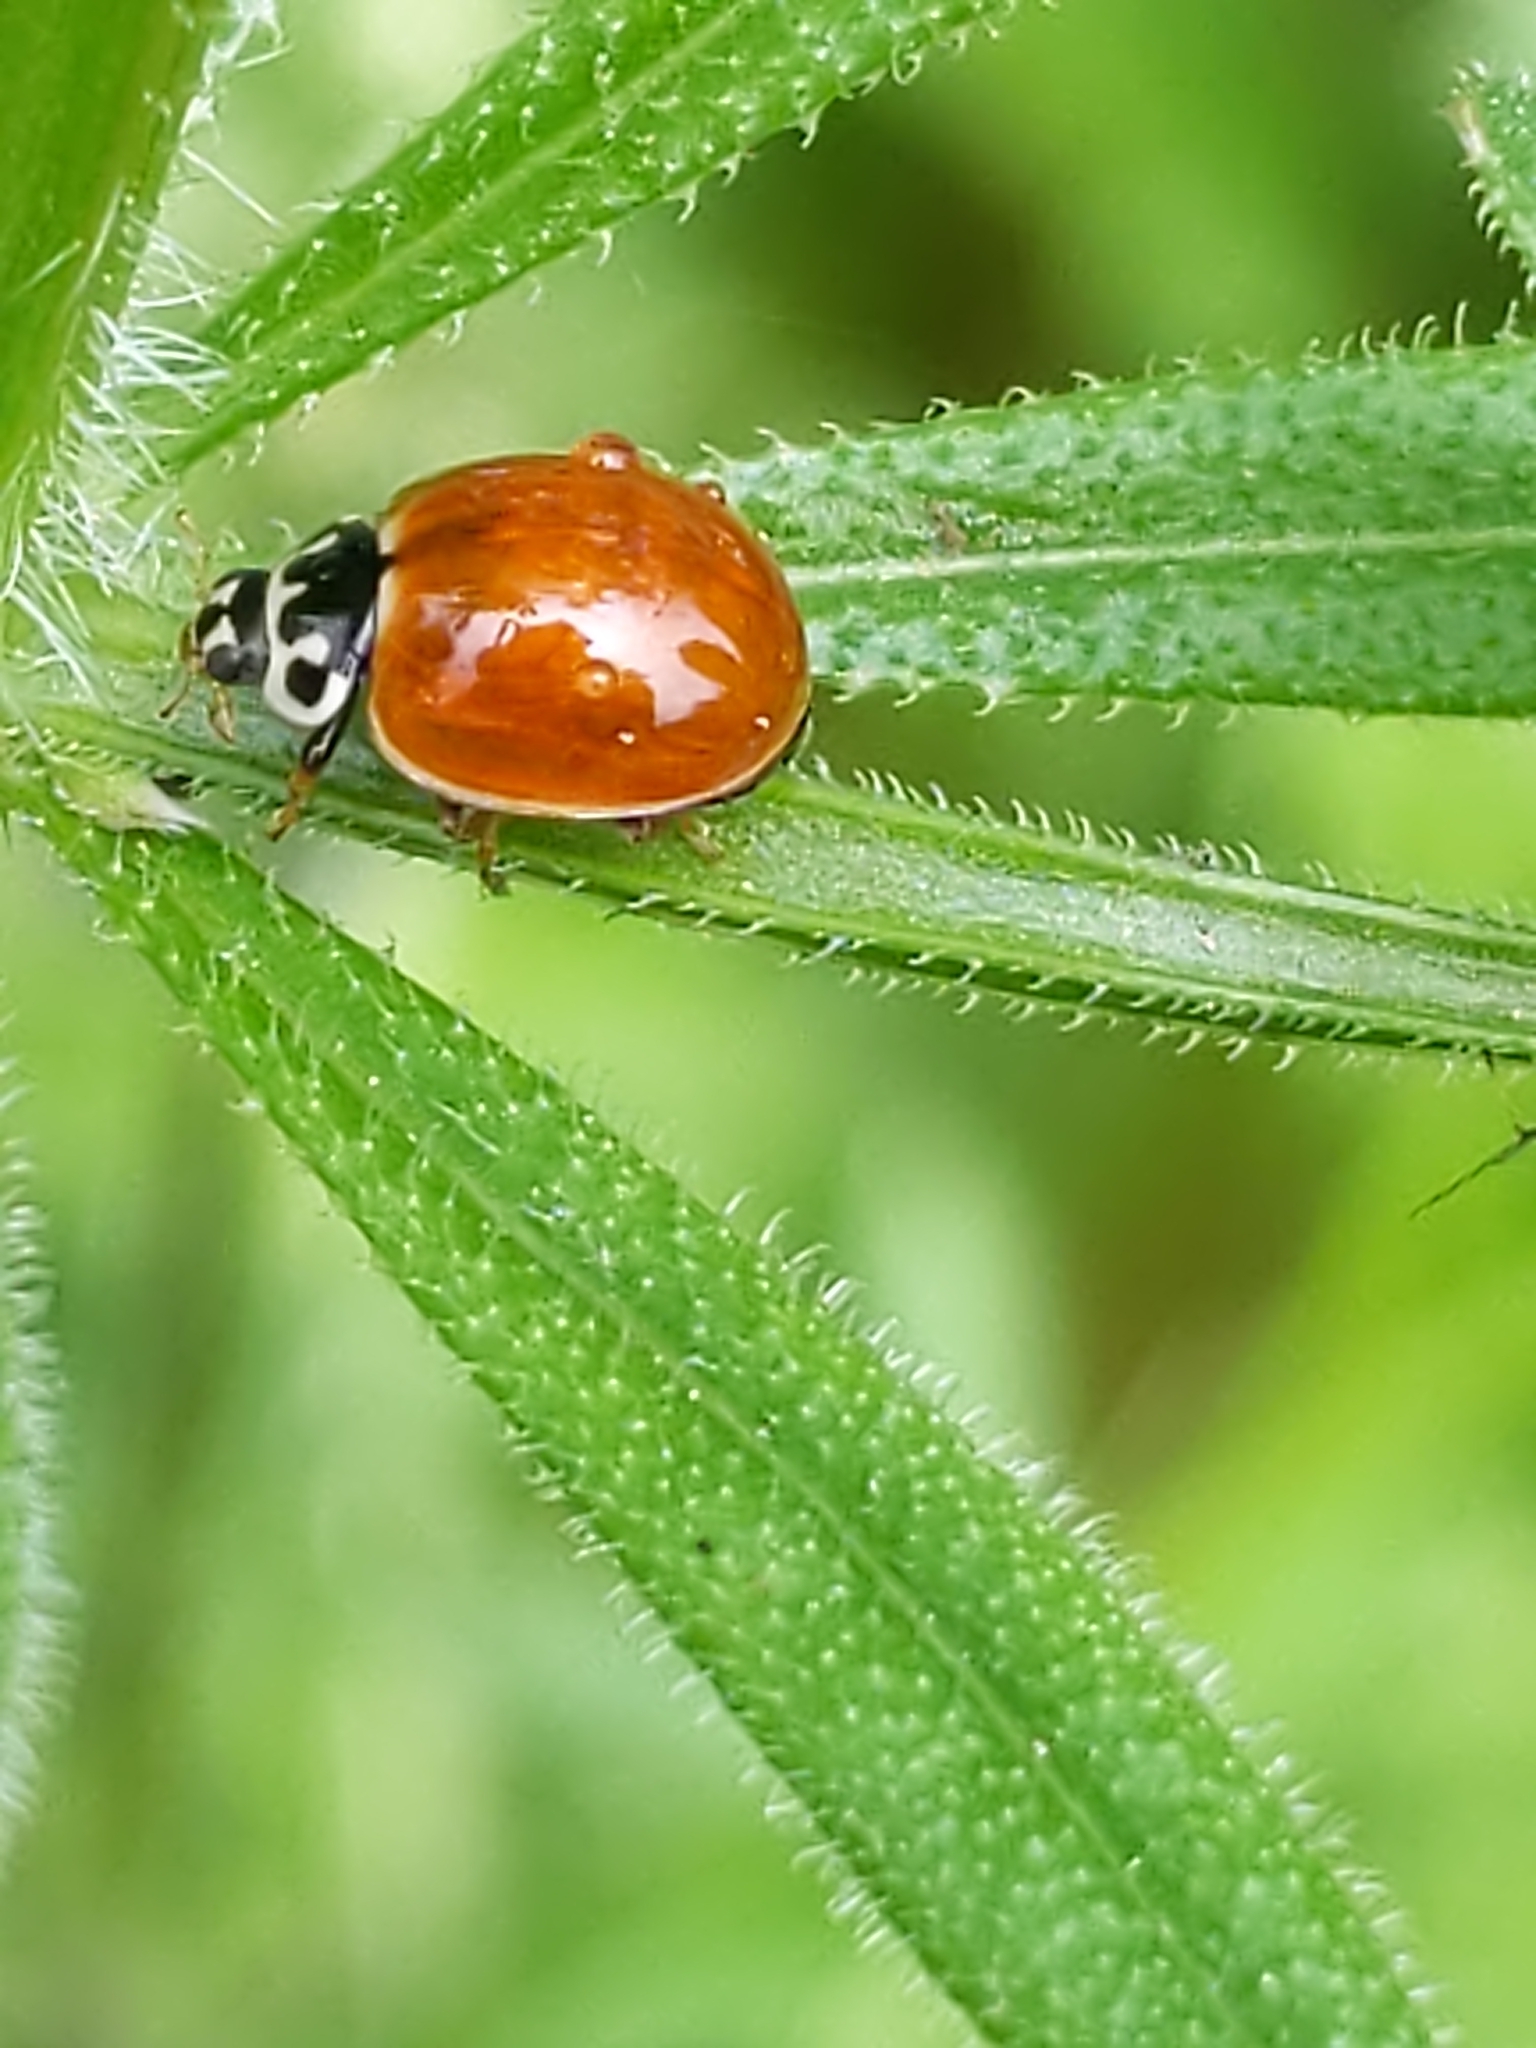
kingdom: Animalia
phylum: Arthropoda
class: Insecta
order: Coleoptera
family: Coccinellidae
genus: Cycloneda
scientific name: Cycloneda munda
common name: Polished lady beetle
